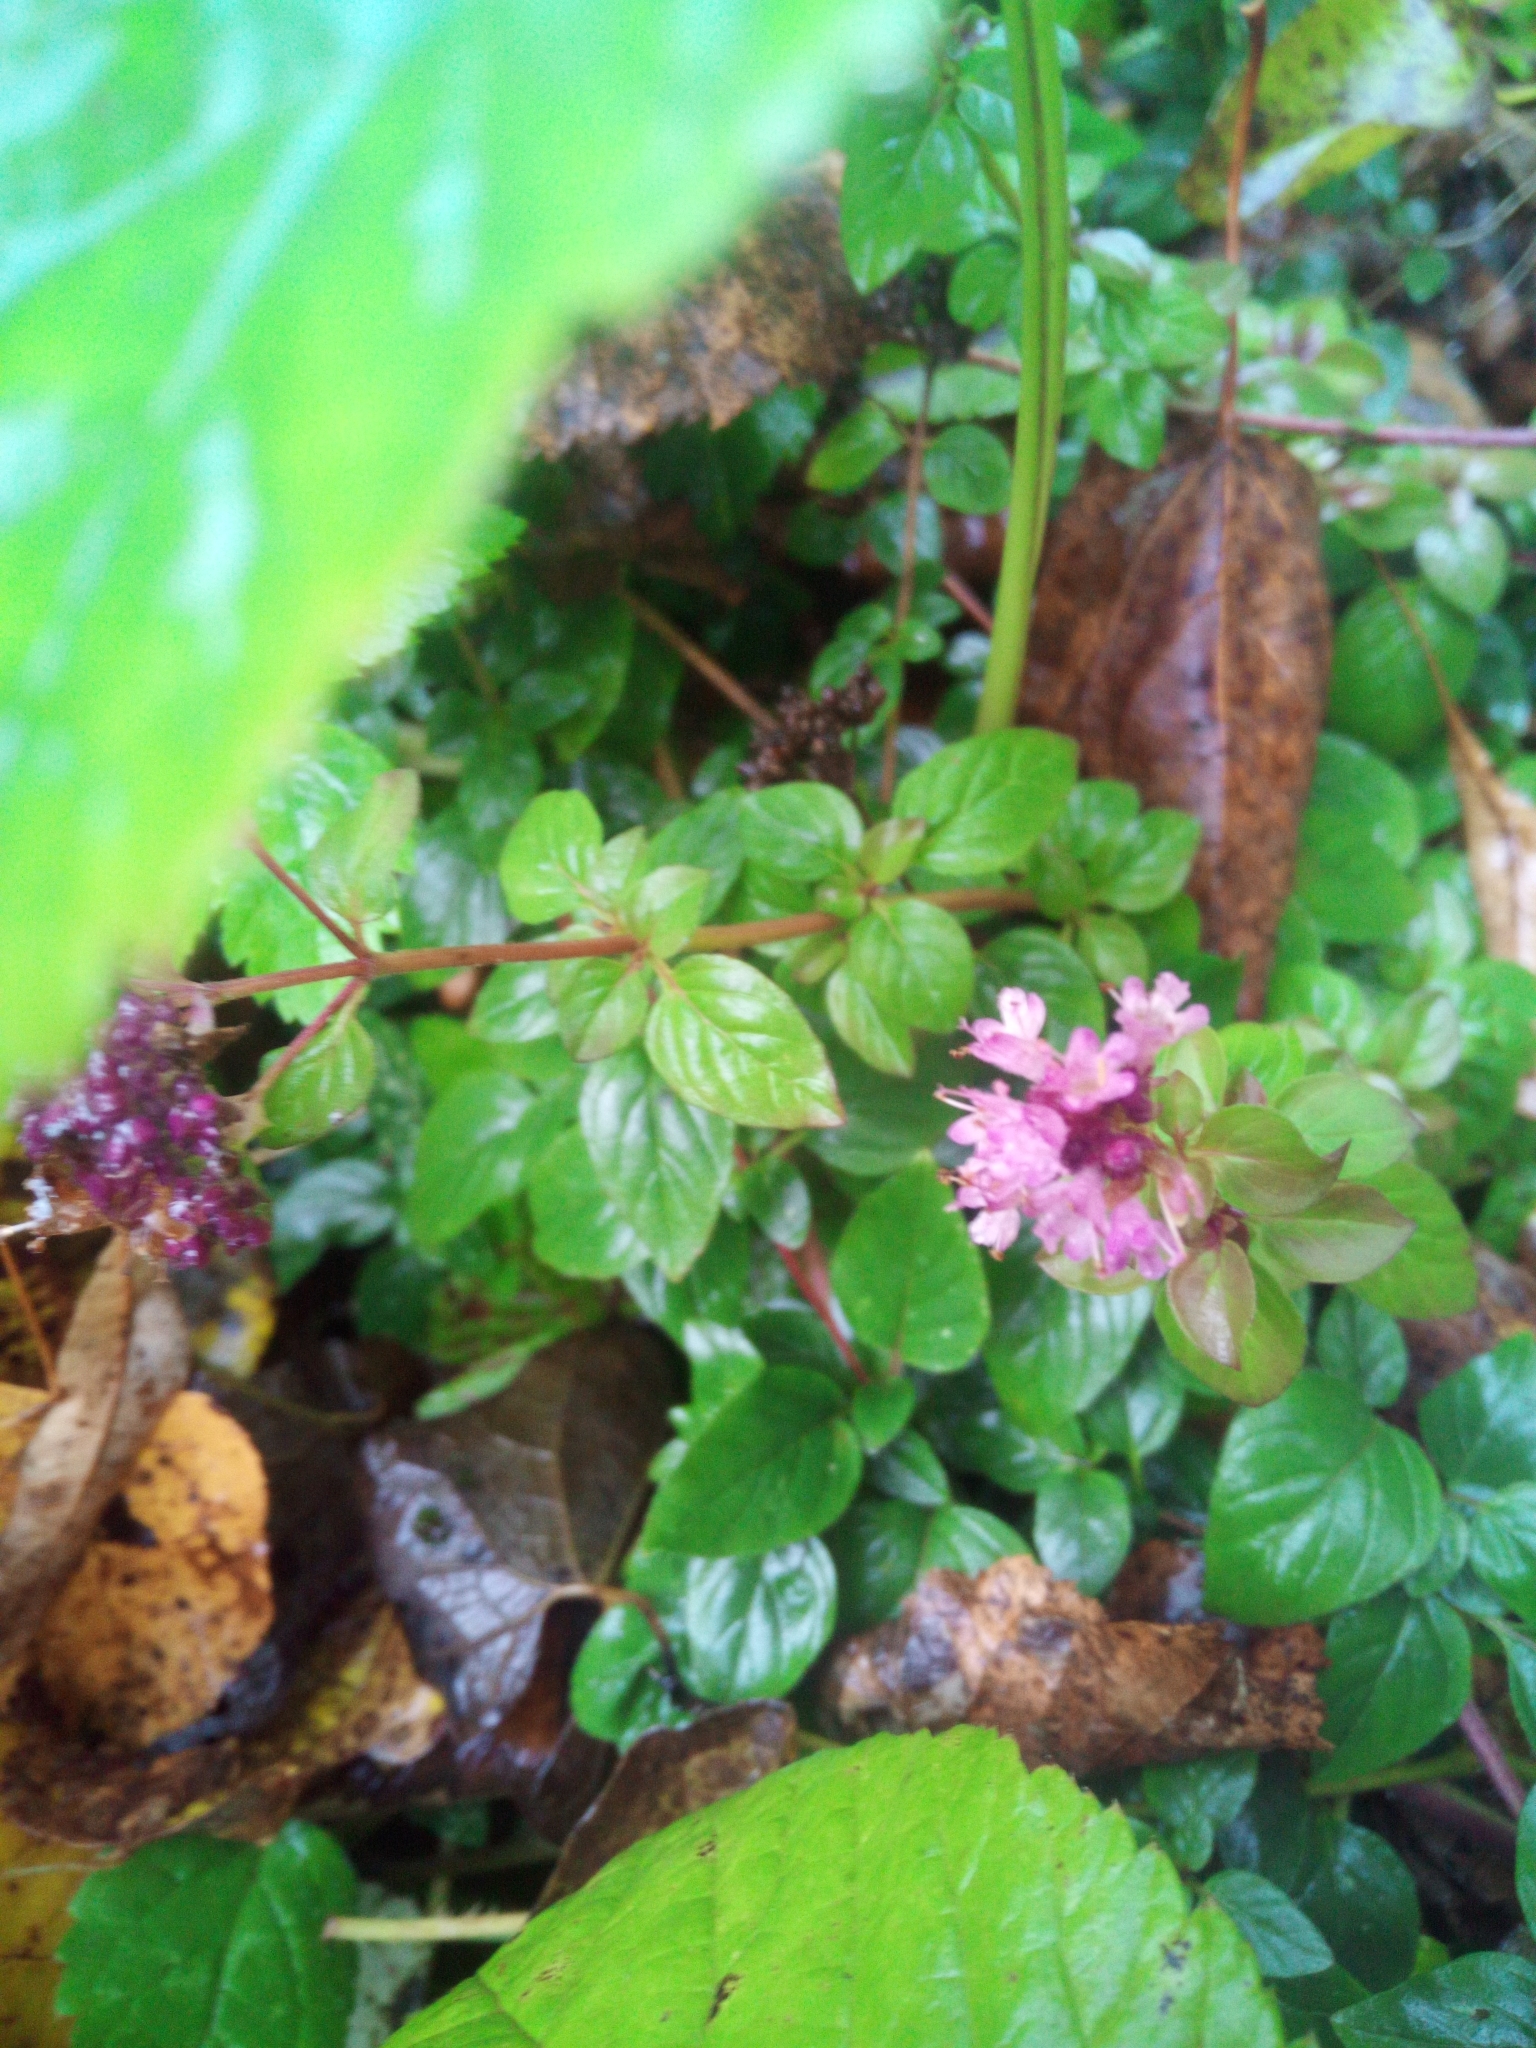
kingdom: Plantae
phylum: Tracheophyta
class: Magnoliopsida
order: Lamiales
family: Lamiaceae
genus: Origanum
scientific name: Origanum vulgare
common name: Wild marjoram
